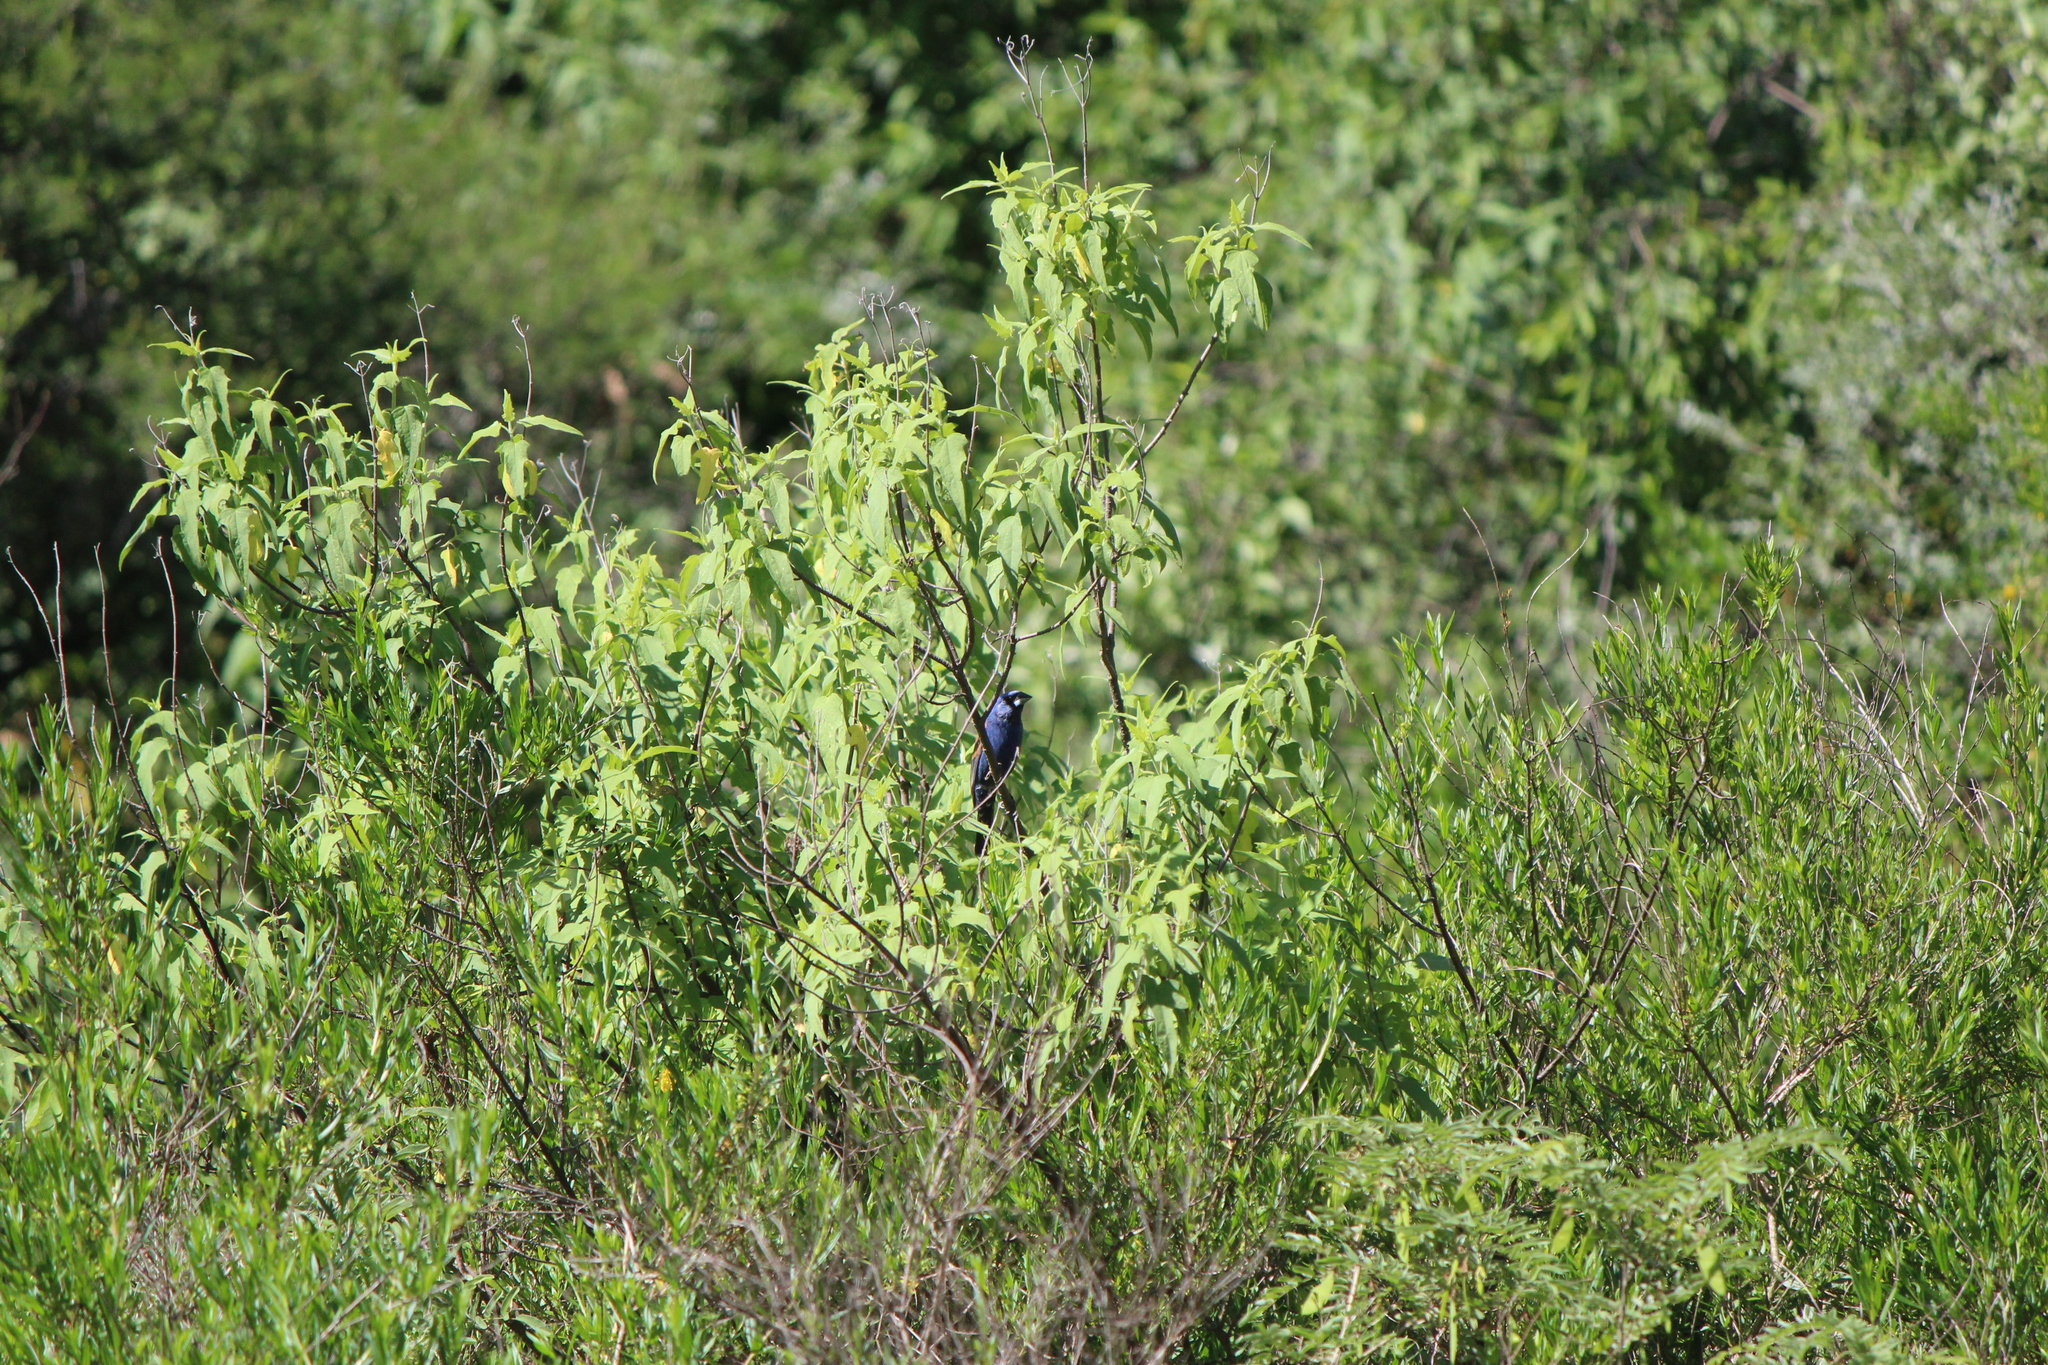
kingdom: Animalia
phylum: Chordata
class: Aves
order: Passeriformes
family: Cardinalidae
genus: Passerina
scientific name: Passerina caerulea
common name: Blue grosbeak
